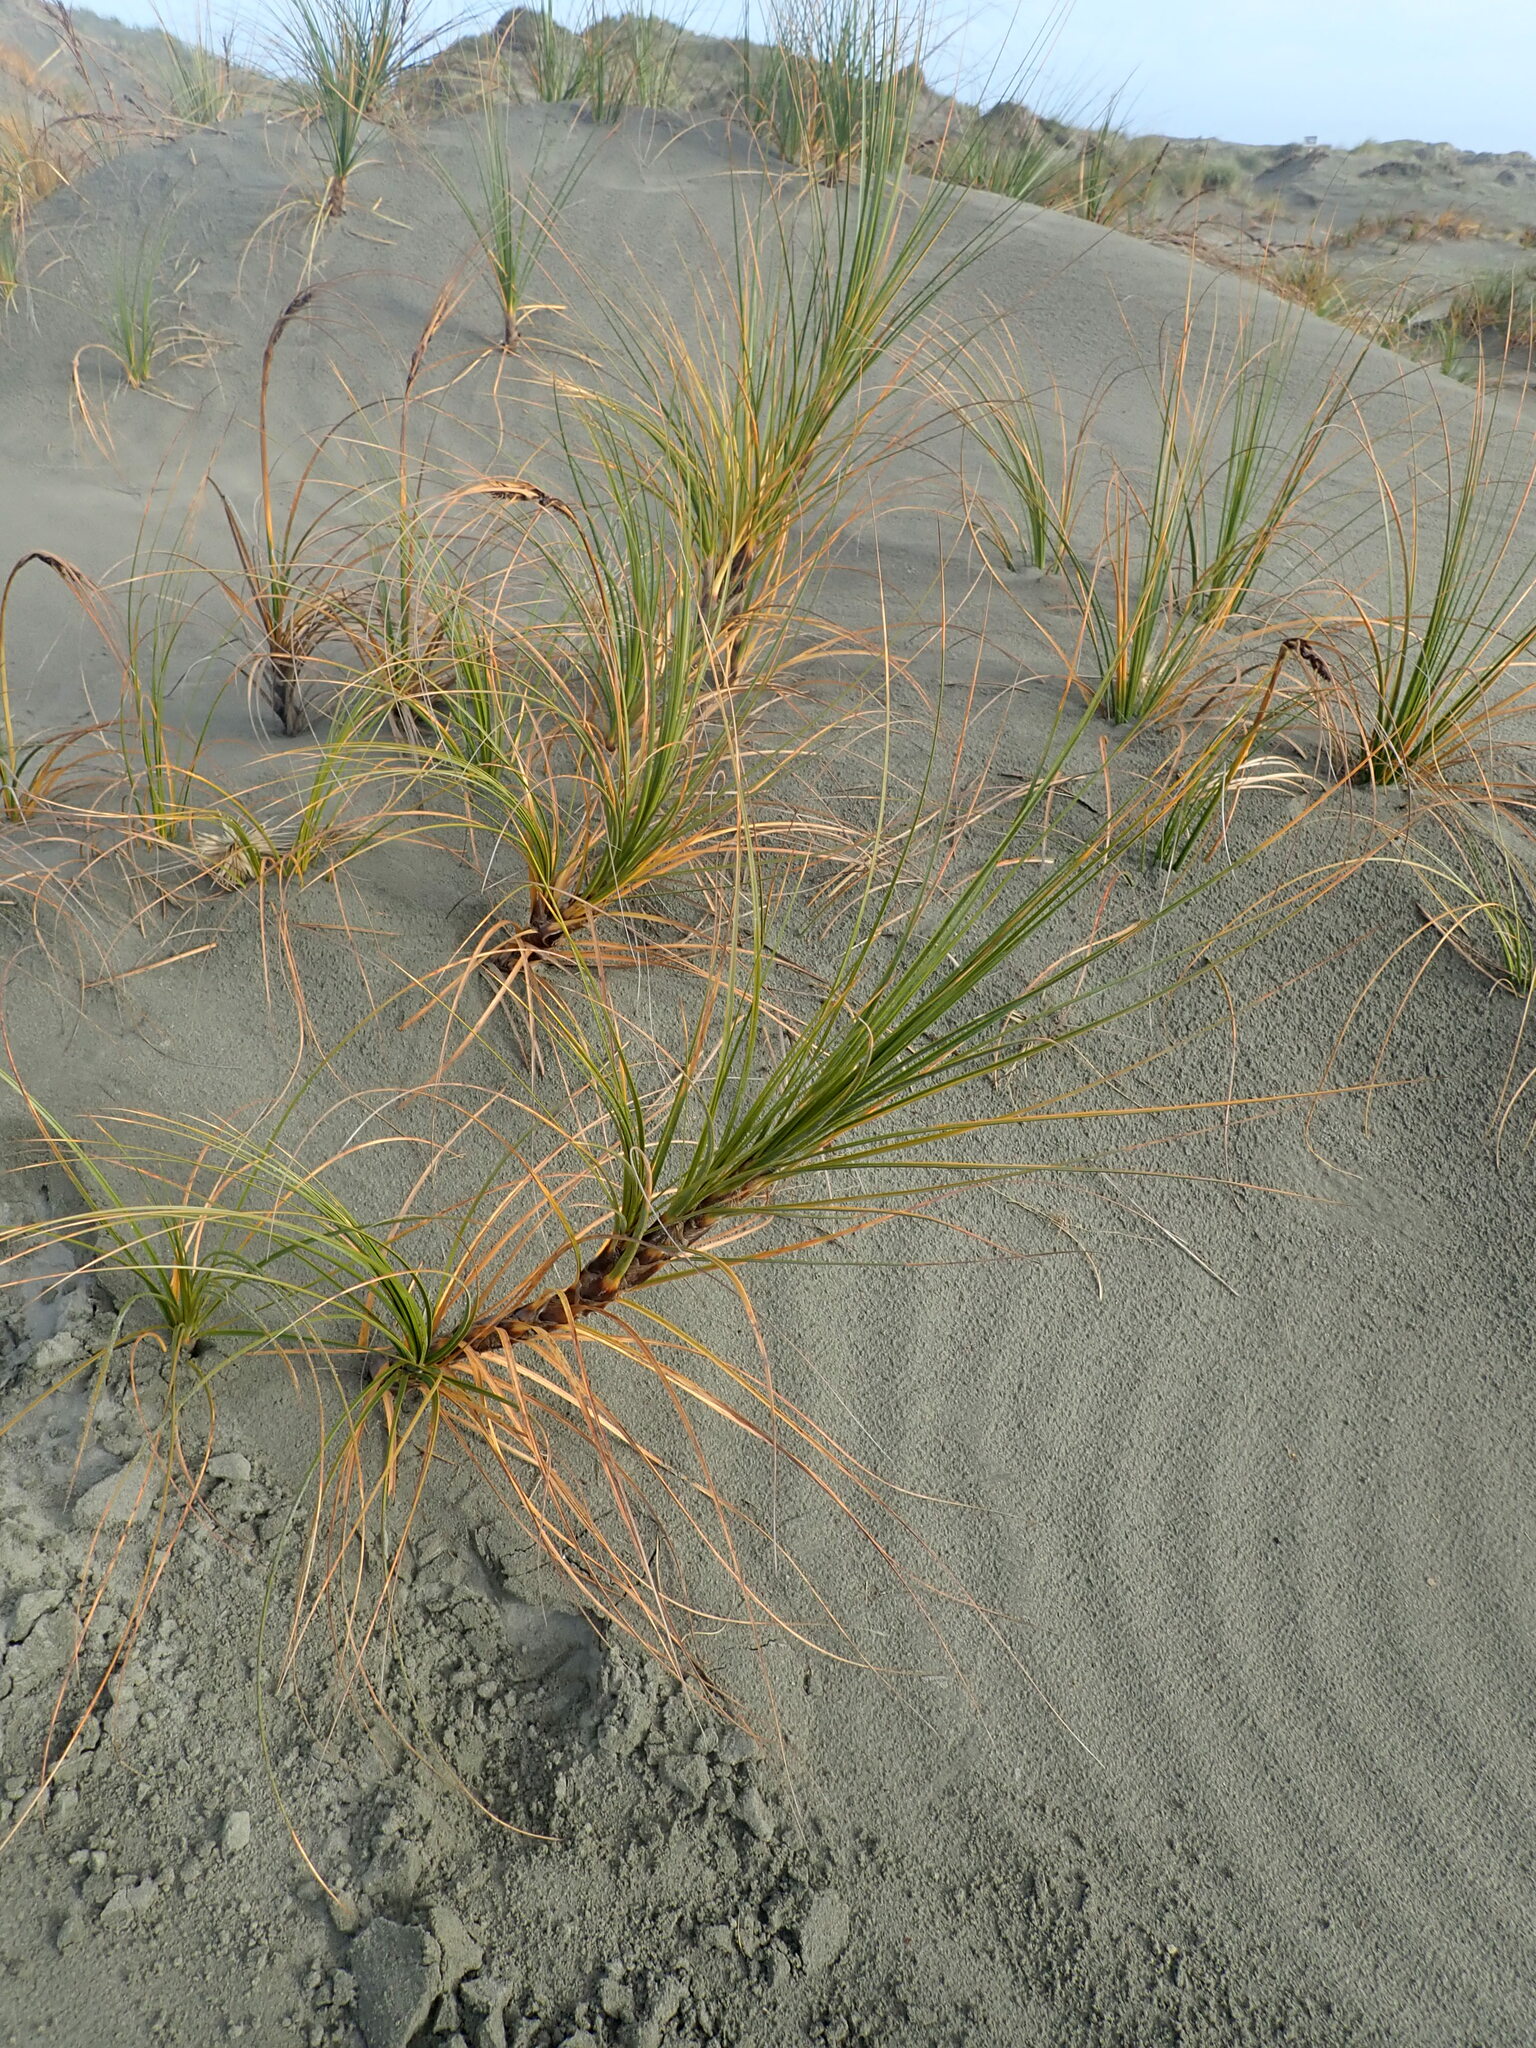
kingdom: Plantae
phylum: Tracheophyta
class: Liliopsida
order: Poales
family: Cyperaceae
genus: Ficinia
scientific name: Ficinia spiralis
